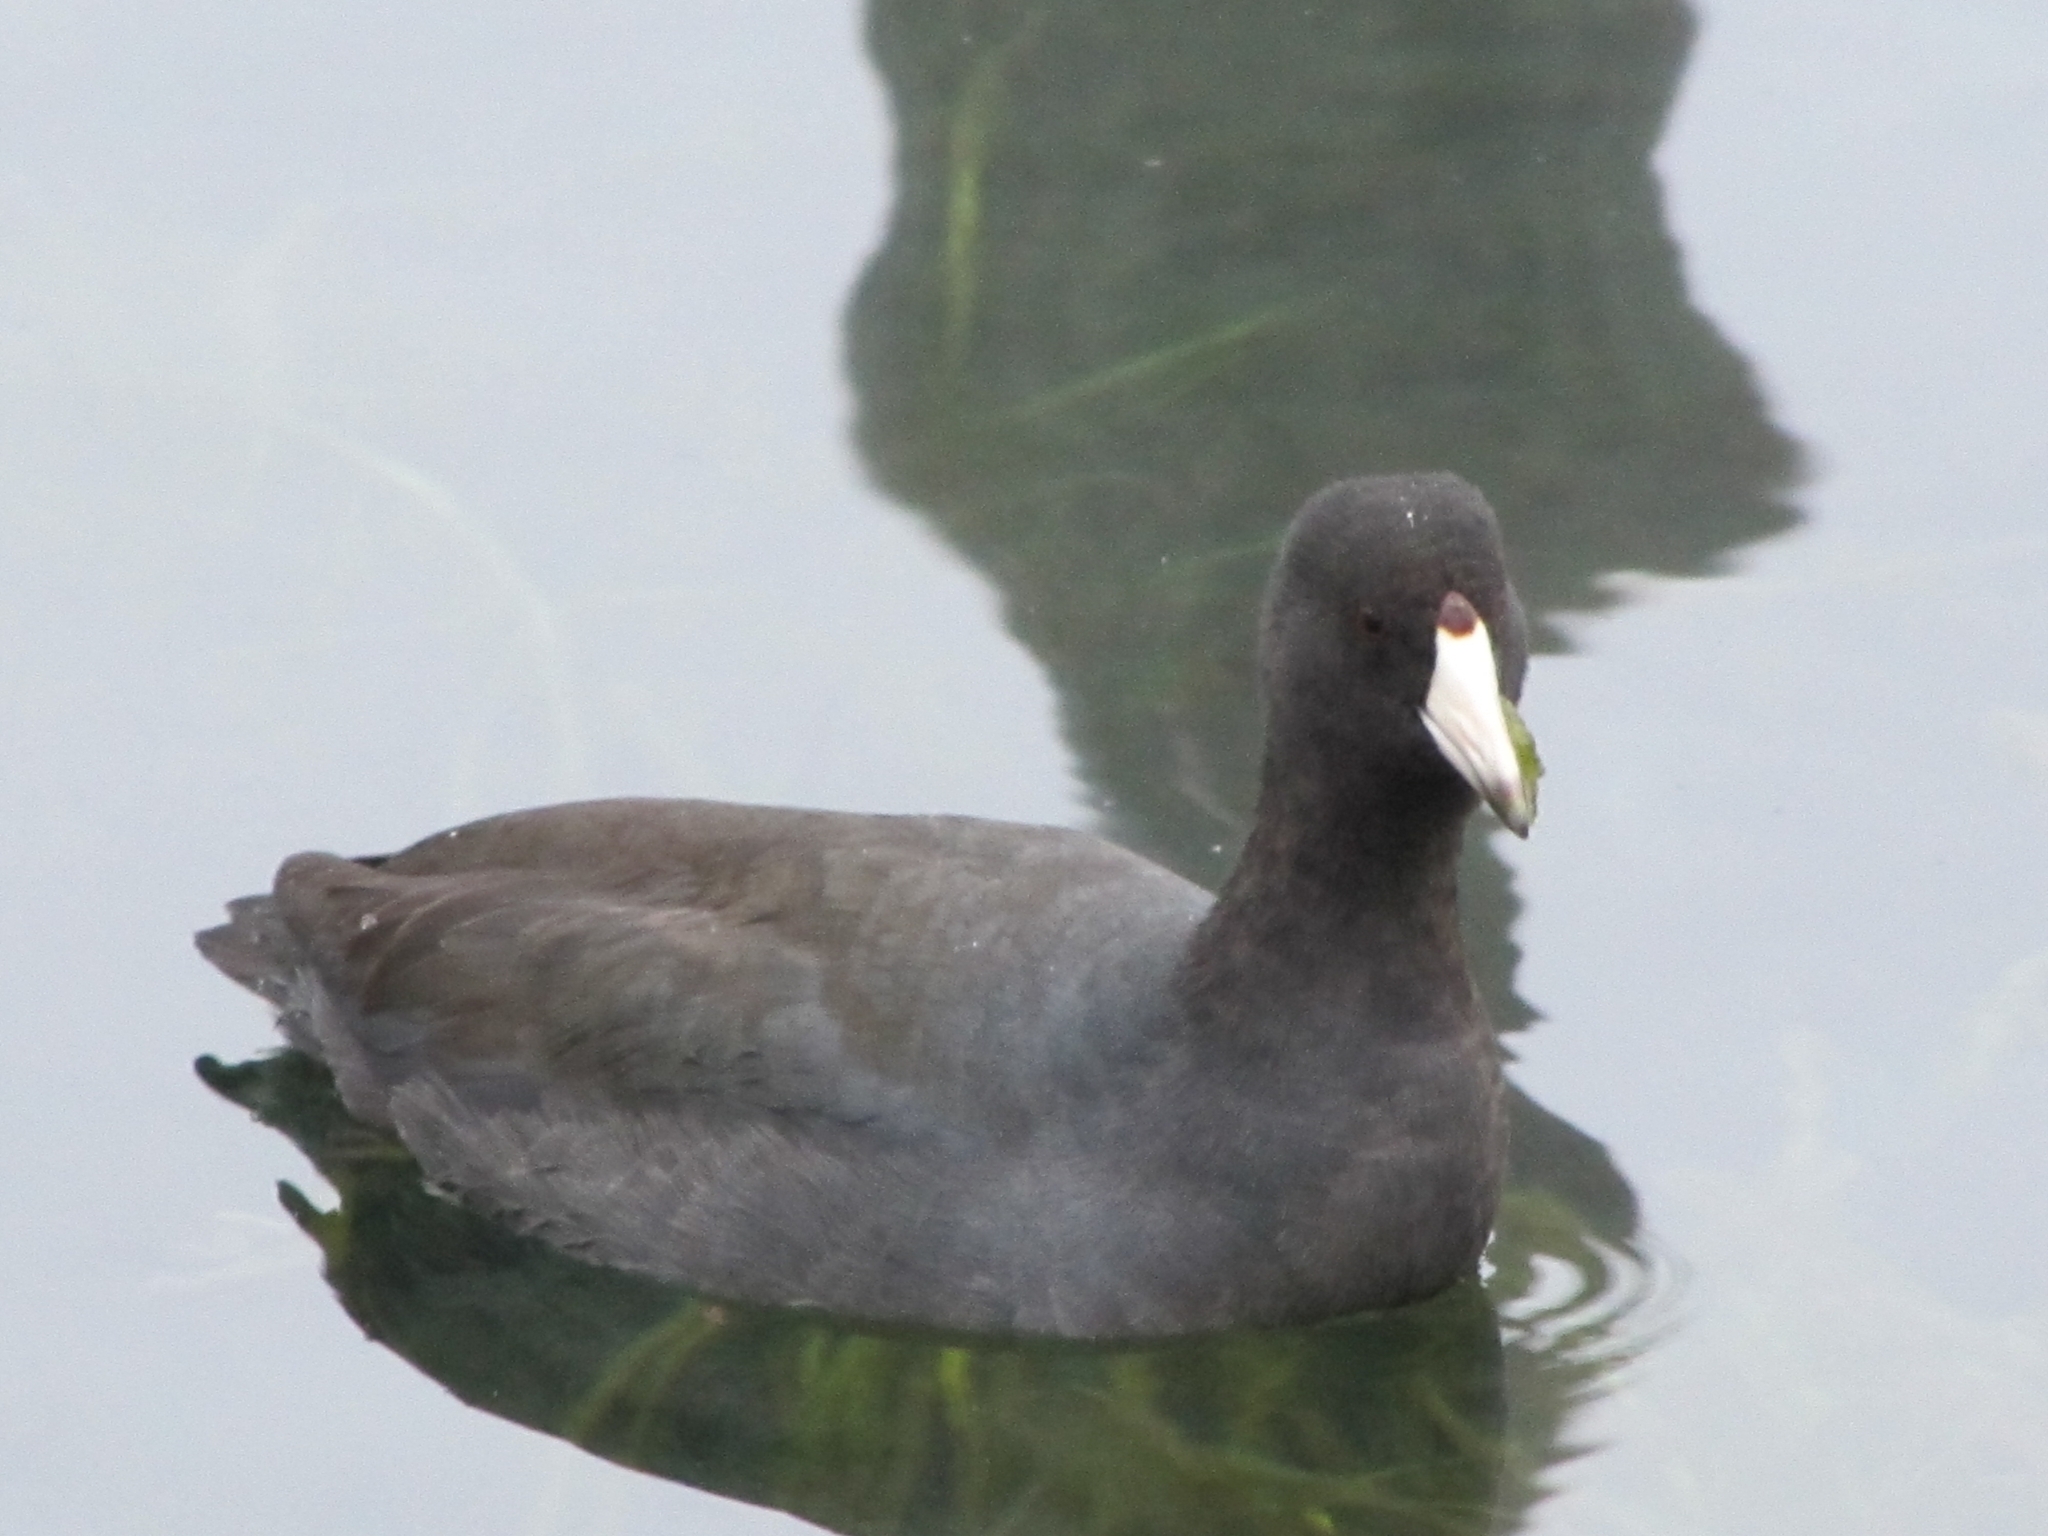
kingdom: Animalia
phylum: Chordata
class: Aves
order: Gruiformes
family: Rallidae
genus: Fulica
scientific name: Fulica americana
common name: American coot
